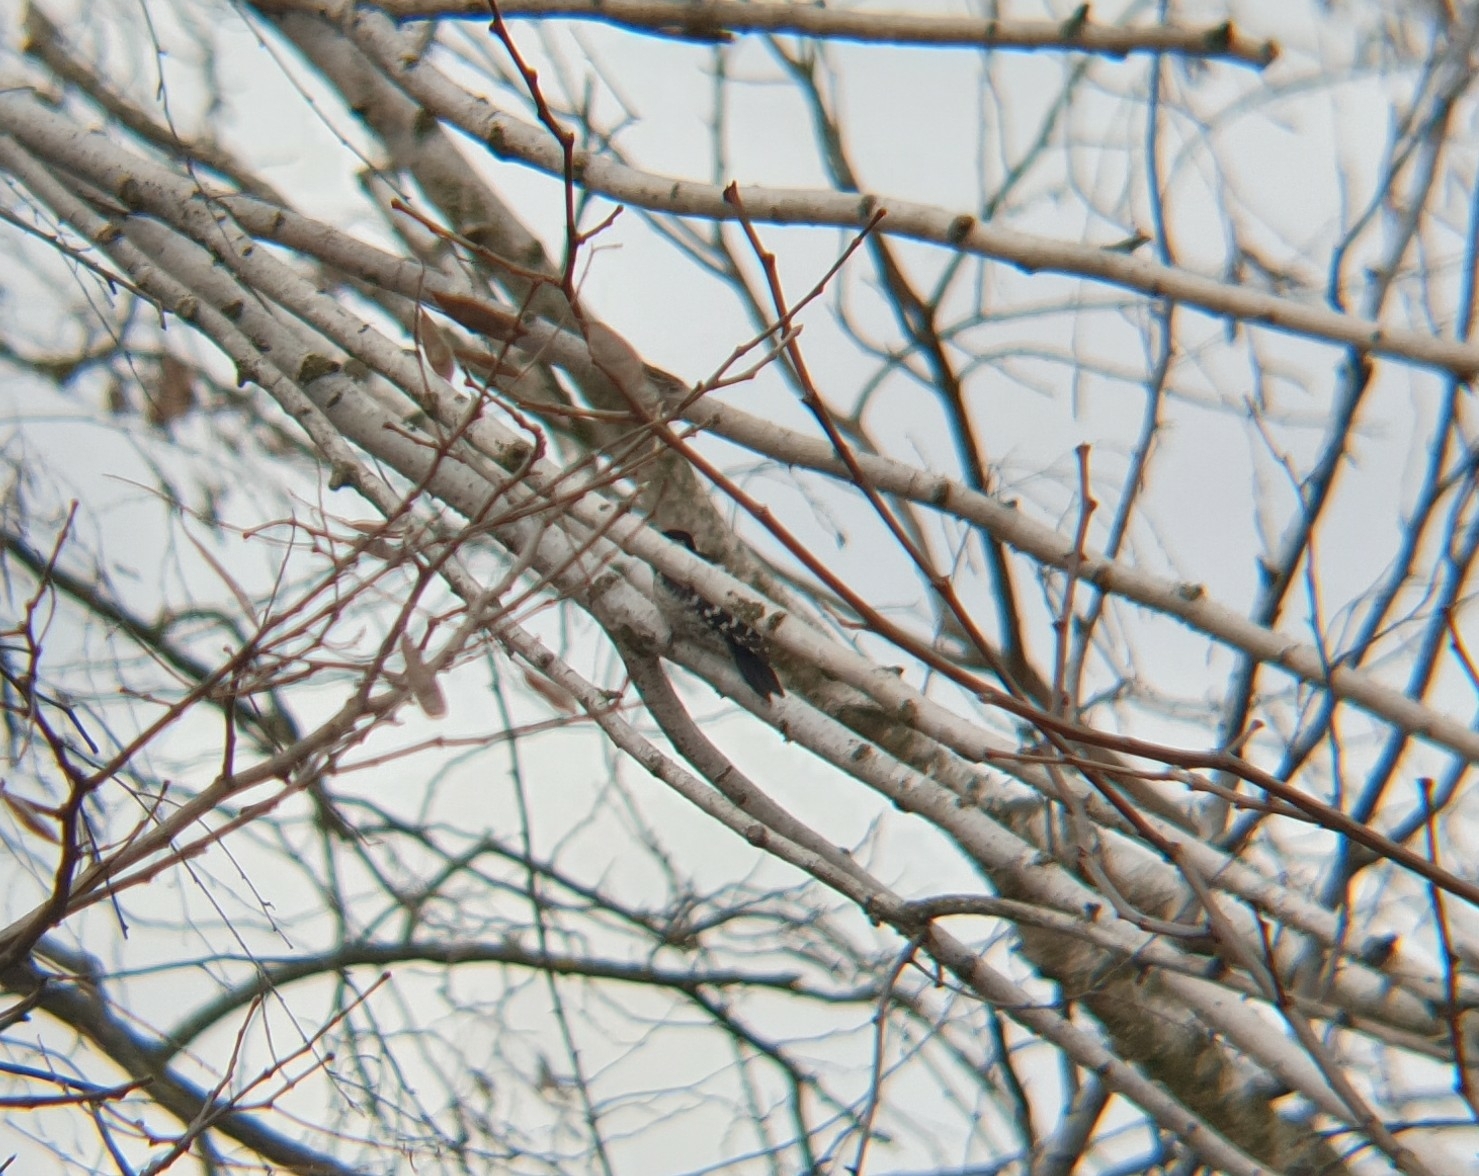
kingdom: Animalia
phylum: Chordata
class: Aves
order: Piciformes
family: Picidae
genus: Dryobates
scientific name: Dryobates minor
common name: Lesser spotted woodpecker
